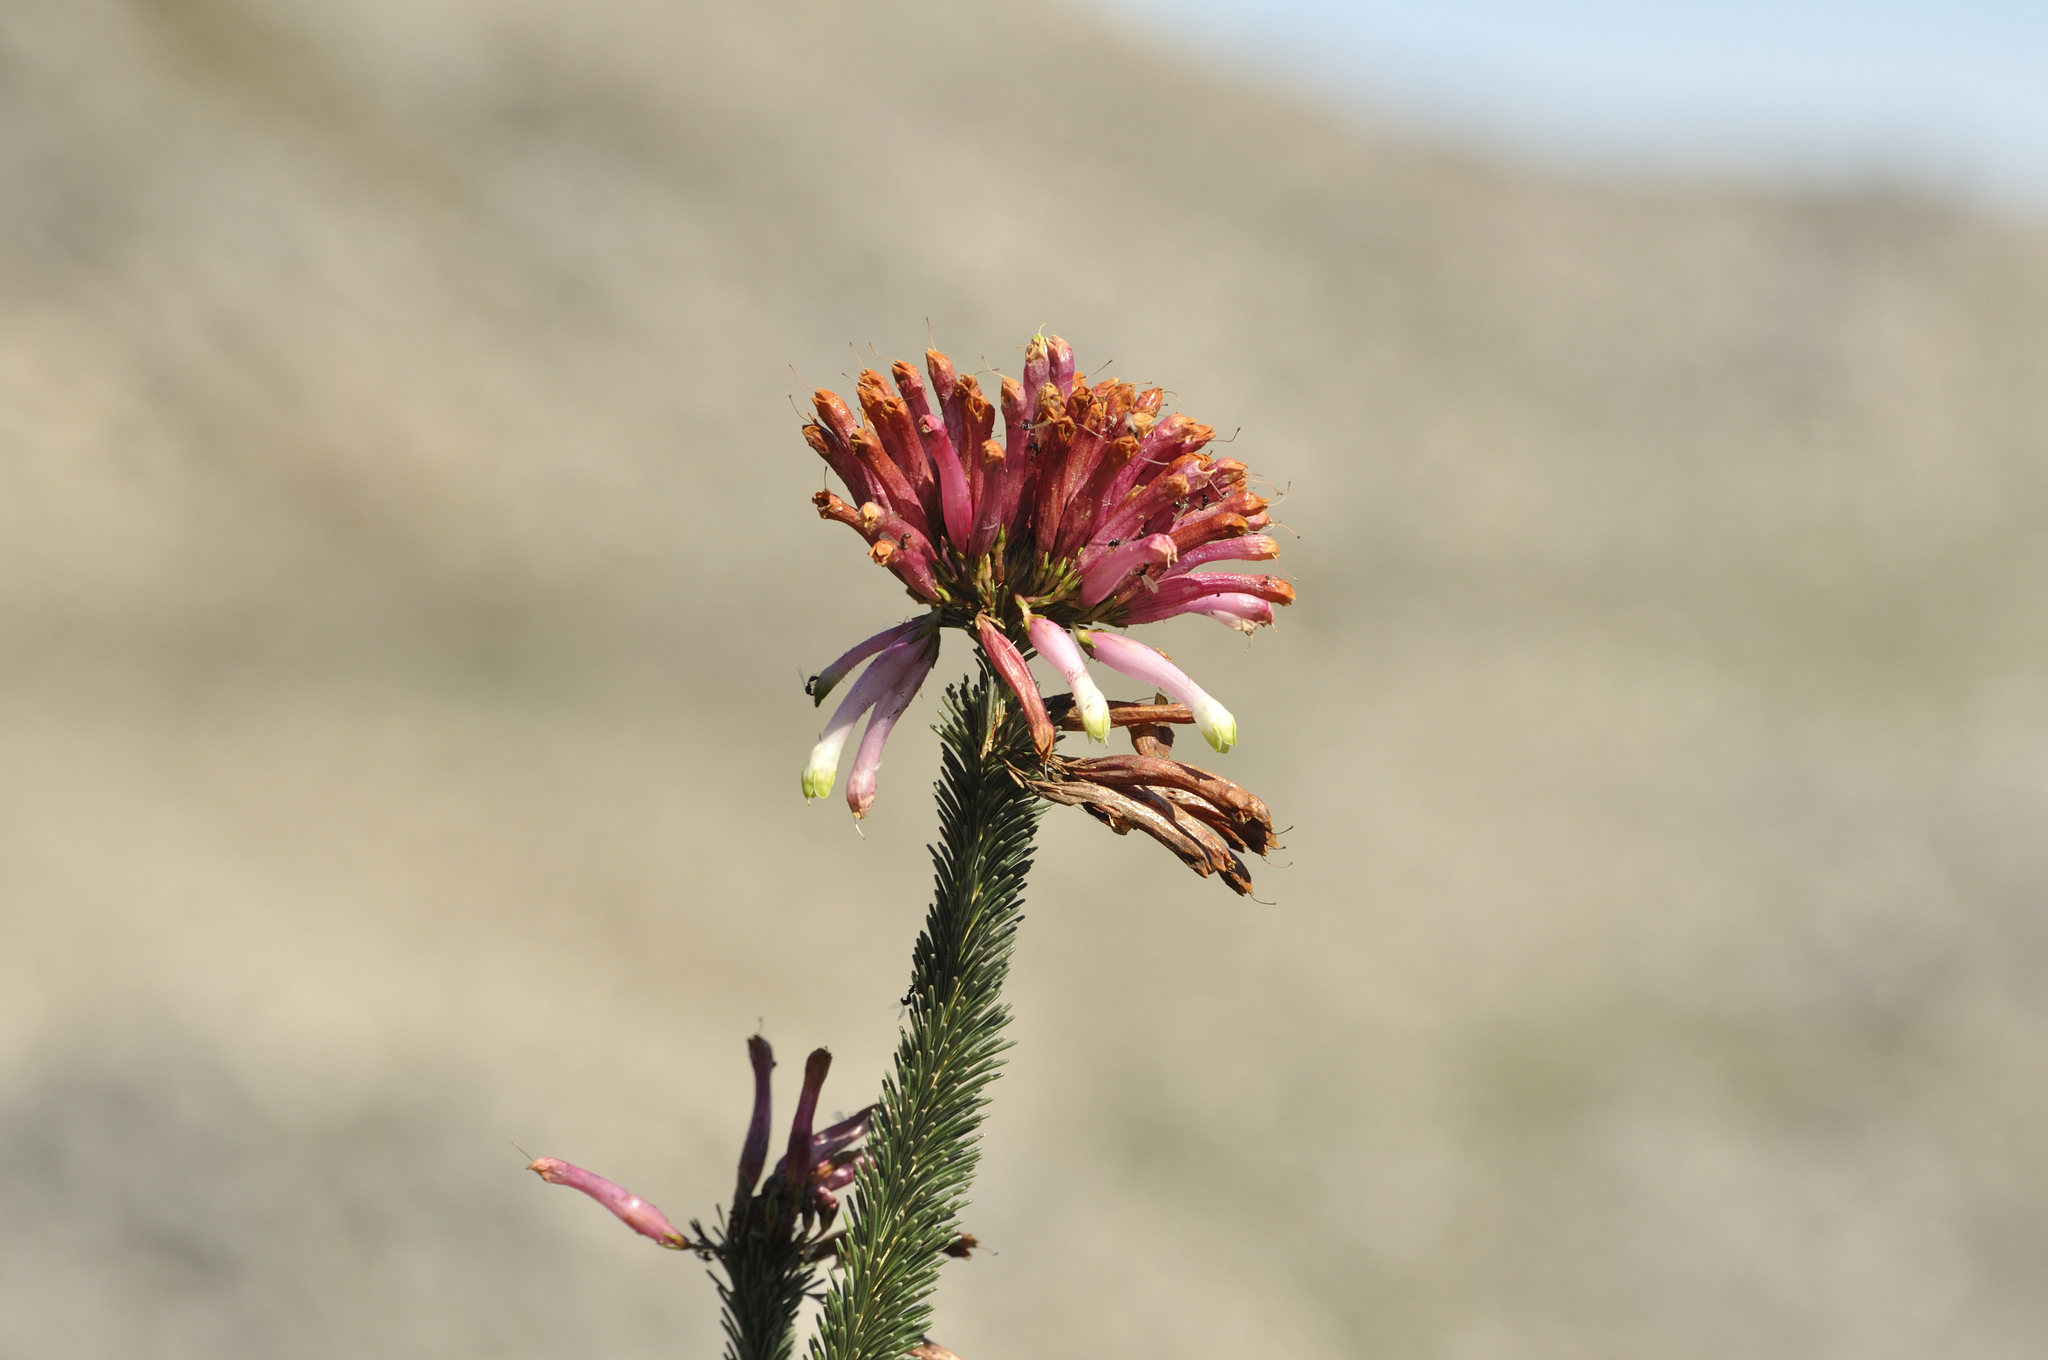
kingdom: Plantae
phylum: Tracheophyta
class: Magnoliopsida
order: Ericales
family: Ericaceae
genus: Erica
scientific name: Erica fascicularis
